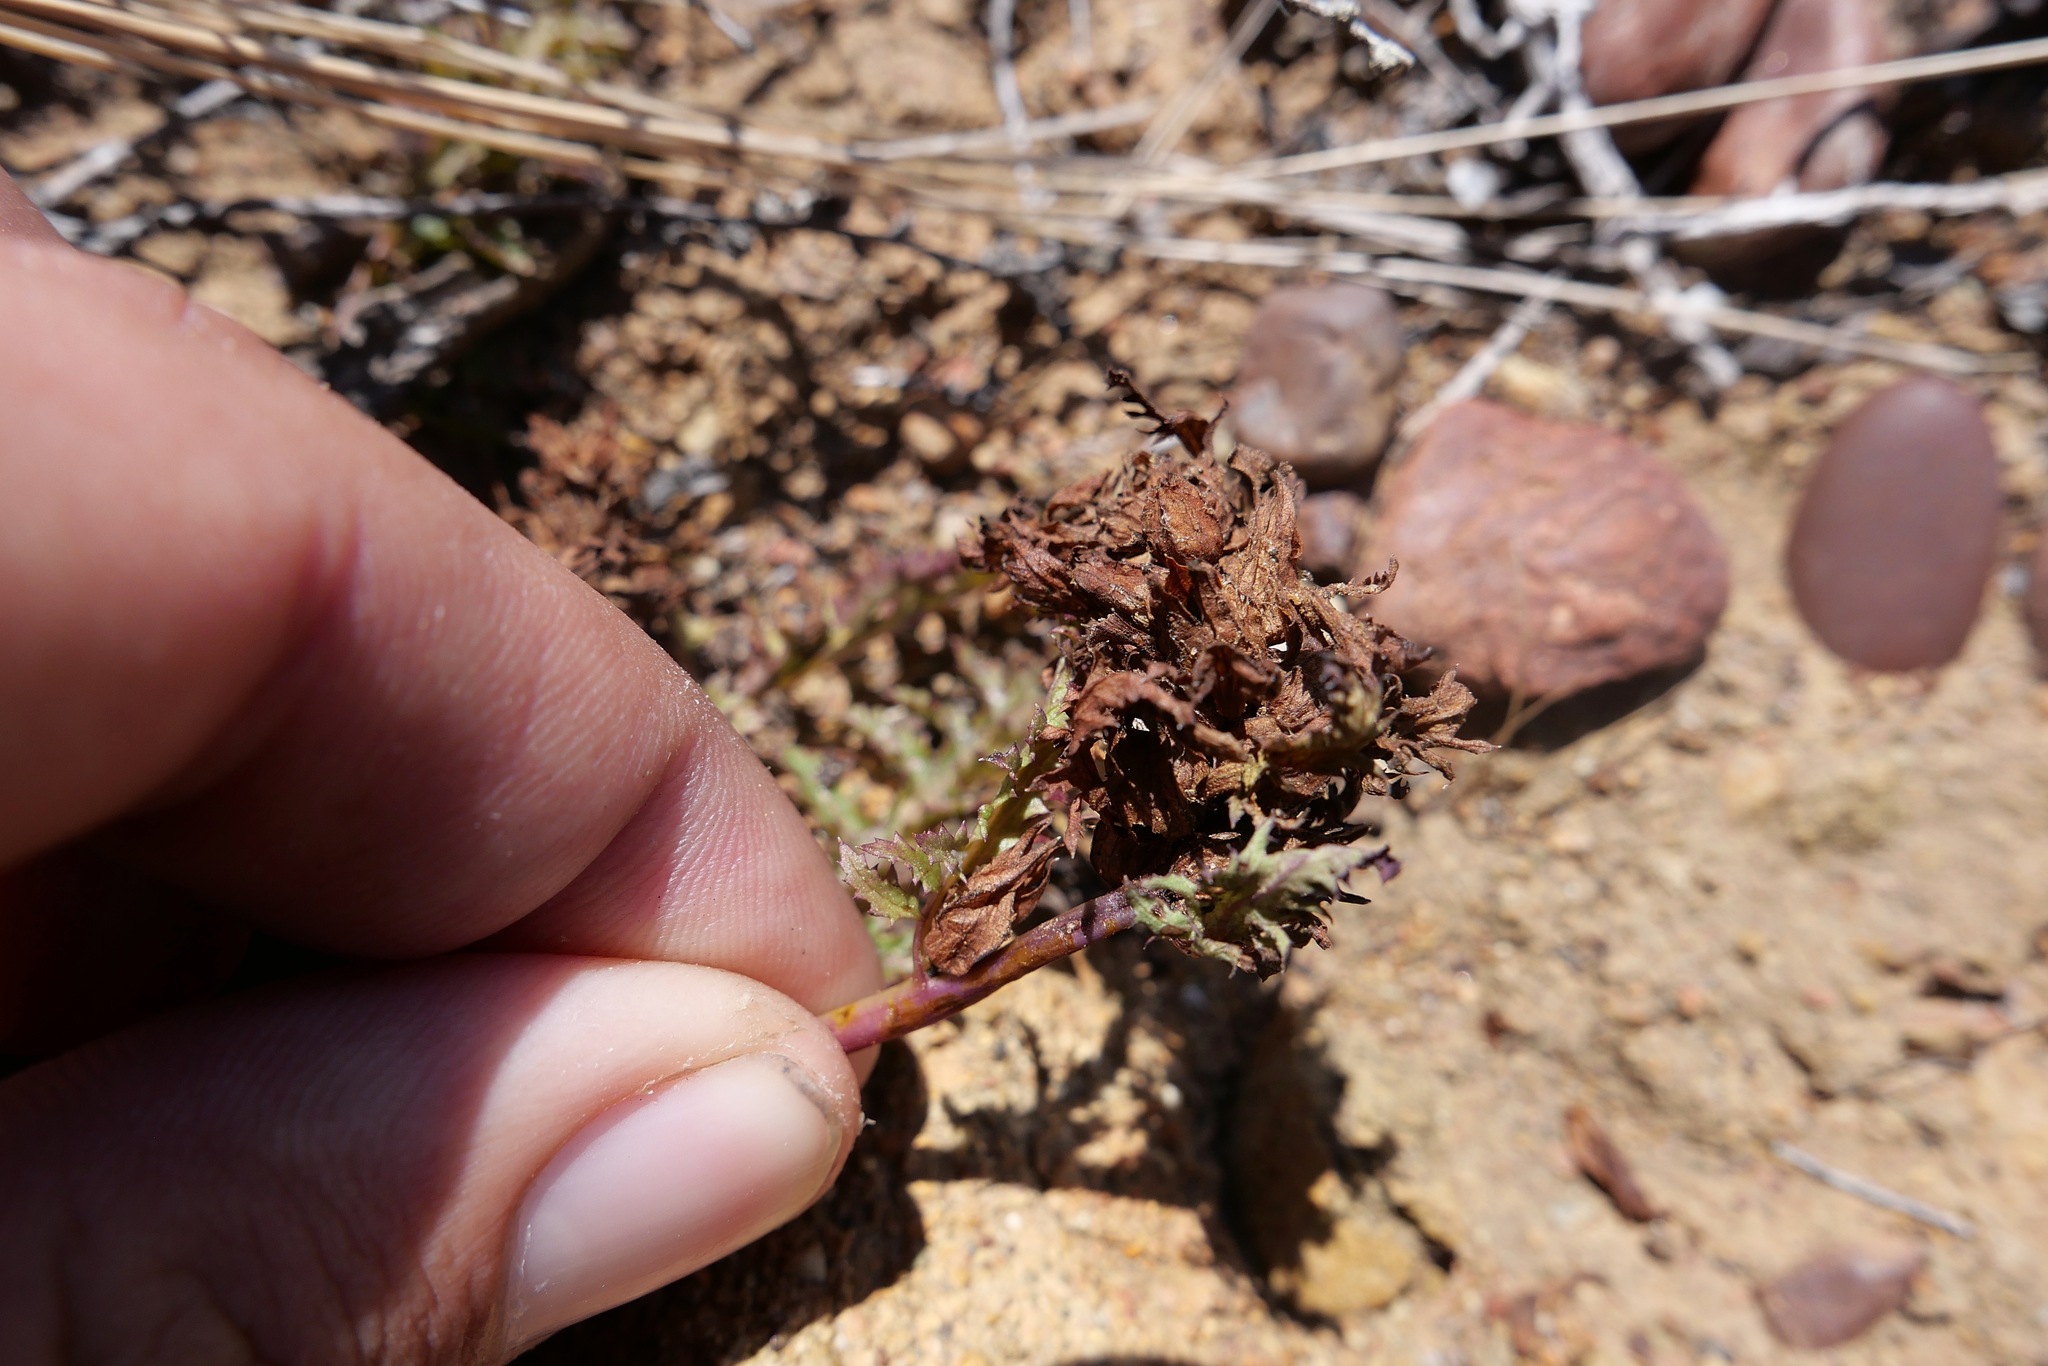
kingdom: Plantae
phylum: Tracheophyta
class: Magnoliopsida
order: Lamiales
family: Orobanchaceae
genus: Pedicularis
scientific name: Pedicularis rigginsiae
